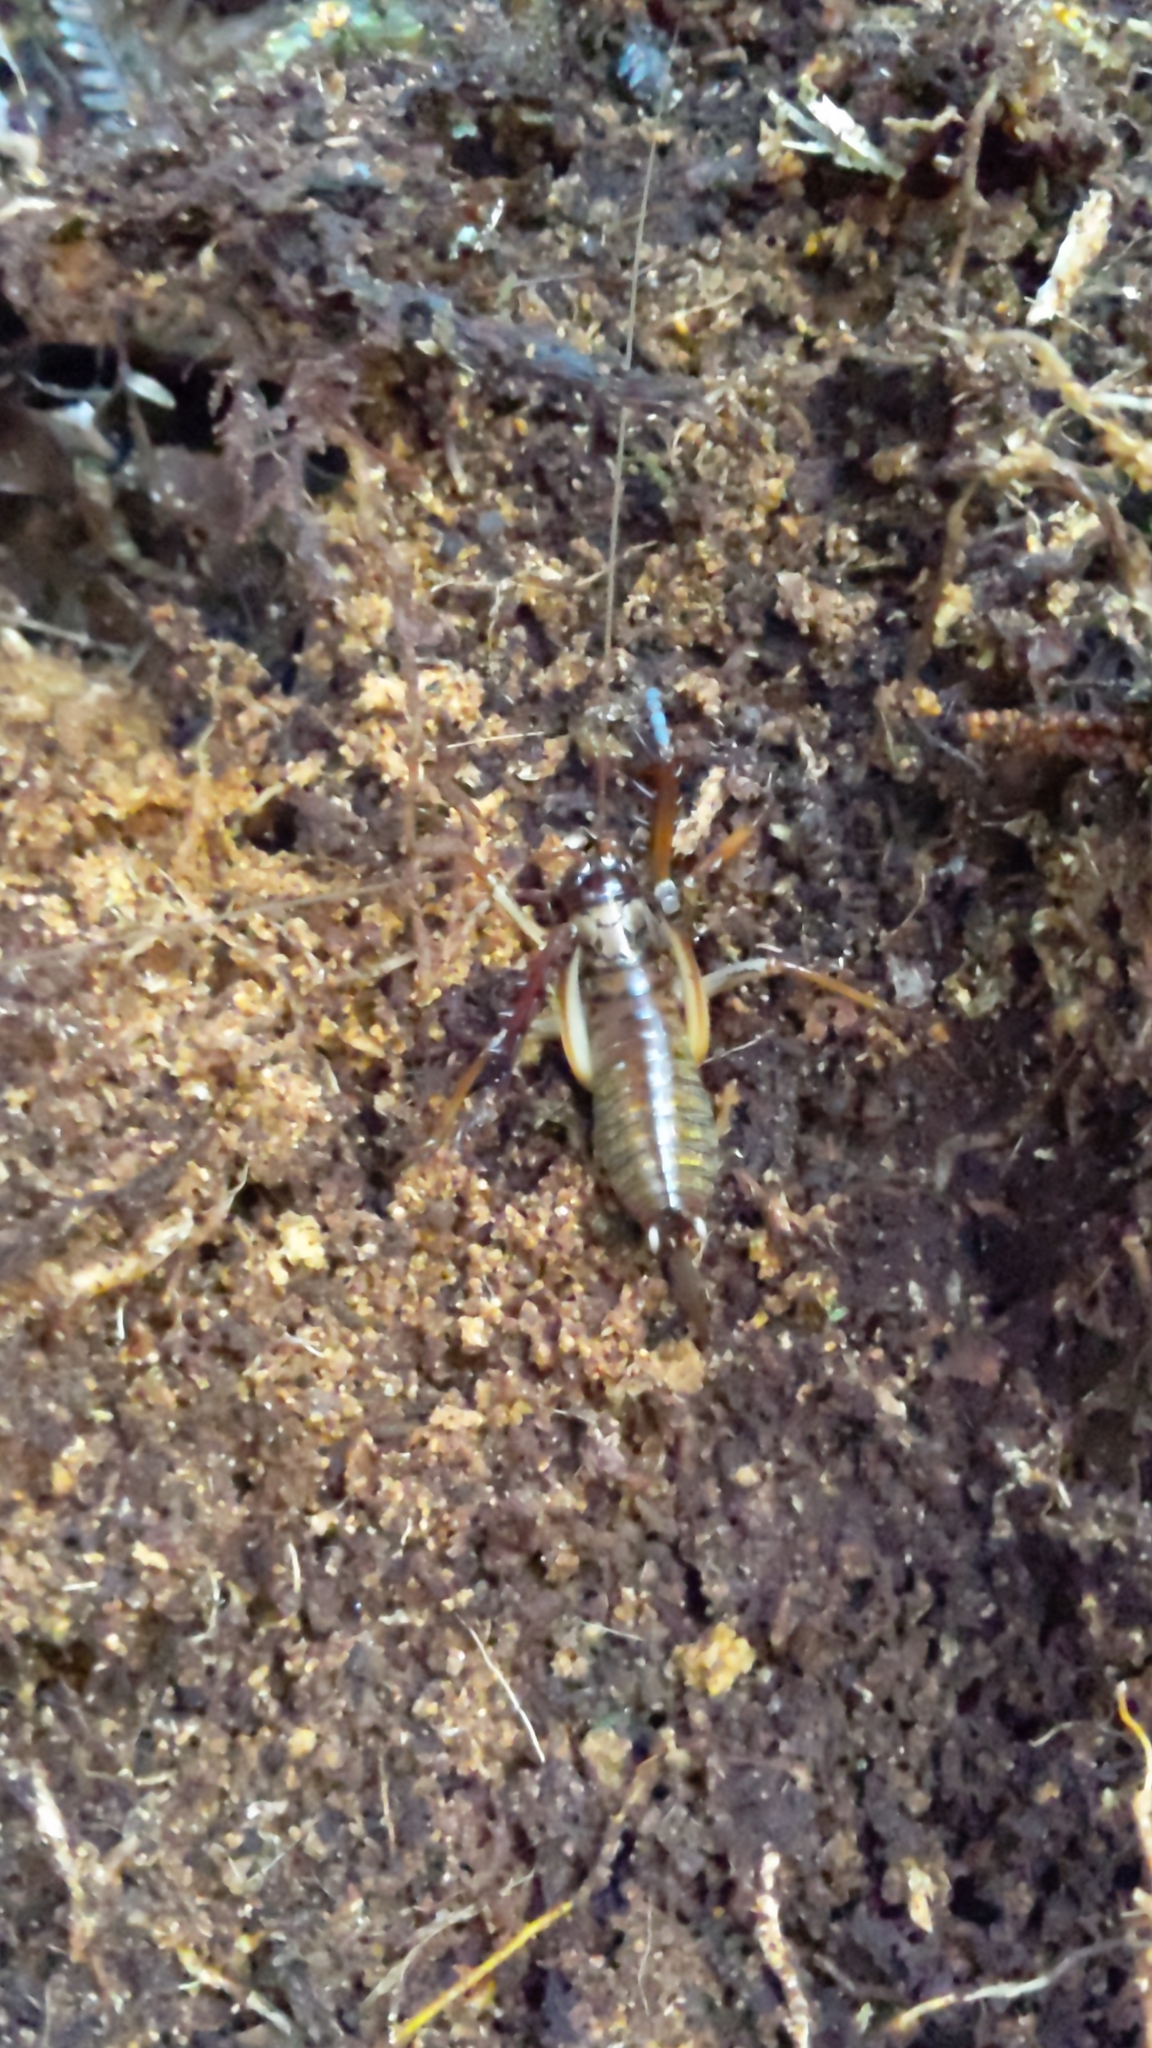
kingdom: Animalia
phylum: Arthropoda
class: Insecta
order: Orthoptera
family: Anostostomatidae
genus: Hemideina
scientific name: Hemideina thoracica
